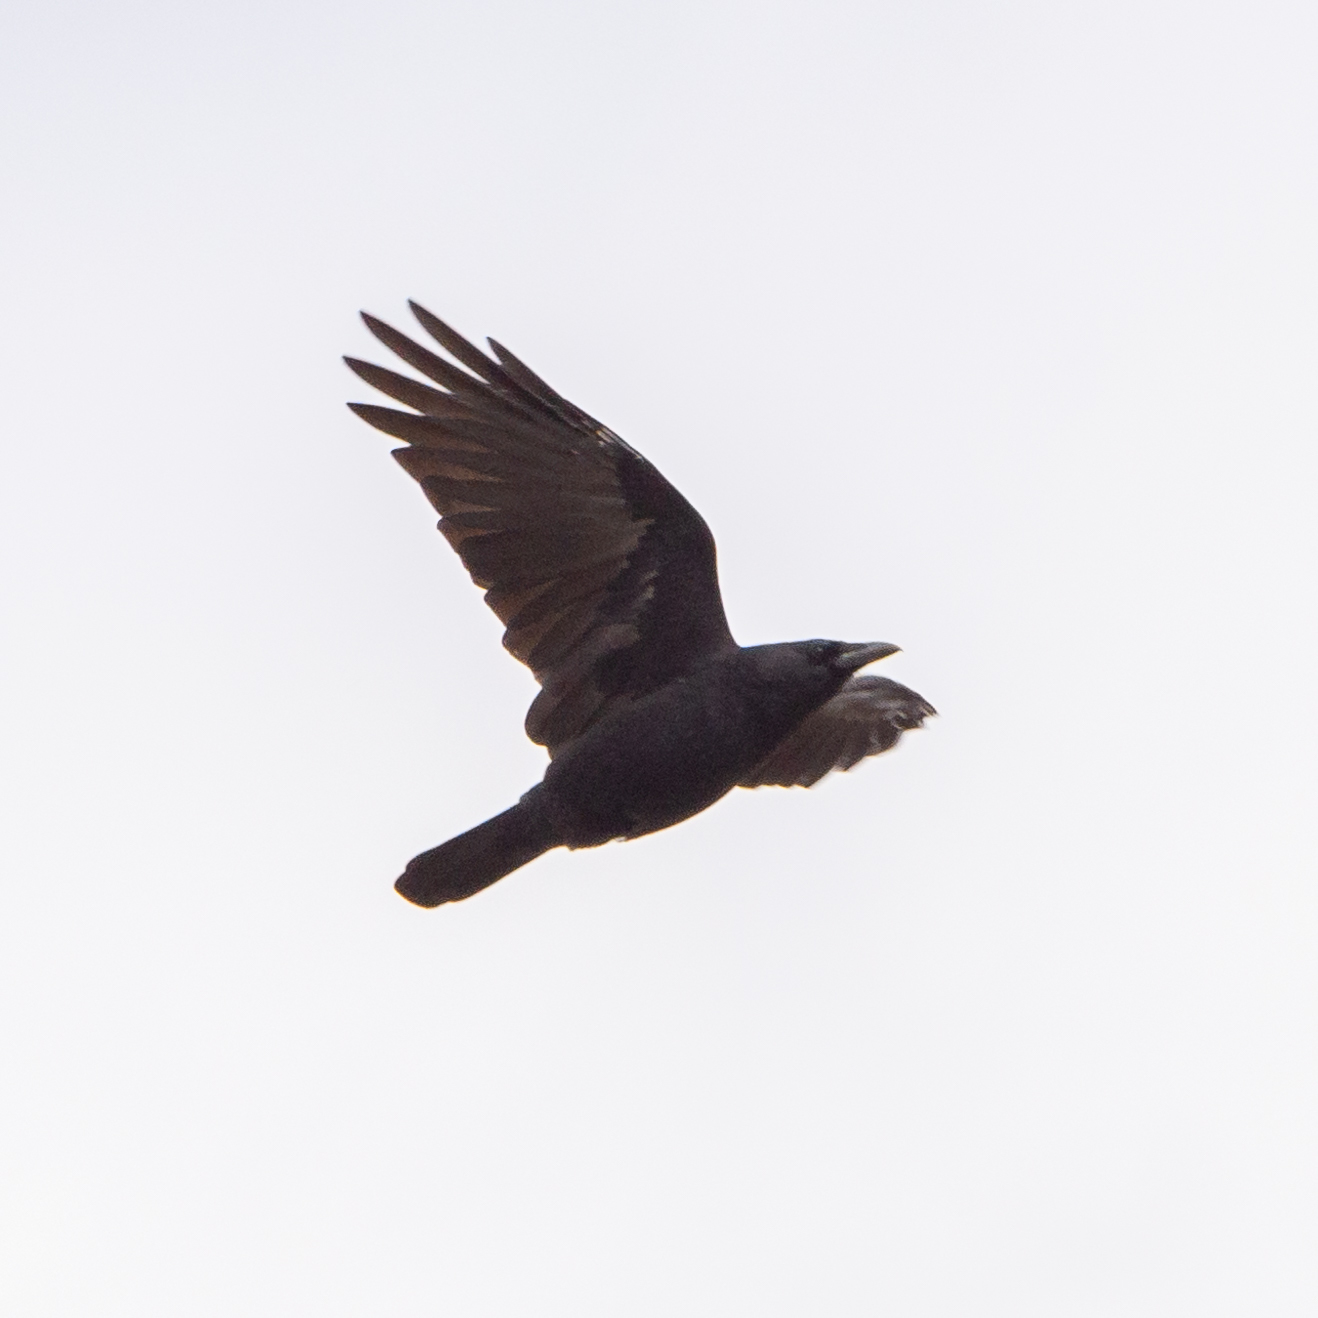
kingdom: Animalia
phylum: Chordata
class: Aves
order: Passeriformes
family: Corvidae
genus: Corvus
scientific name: Corvus corone
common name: Carrion crow
